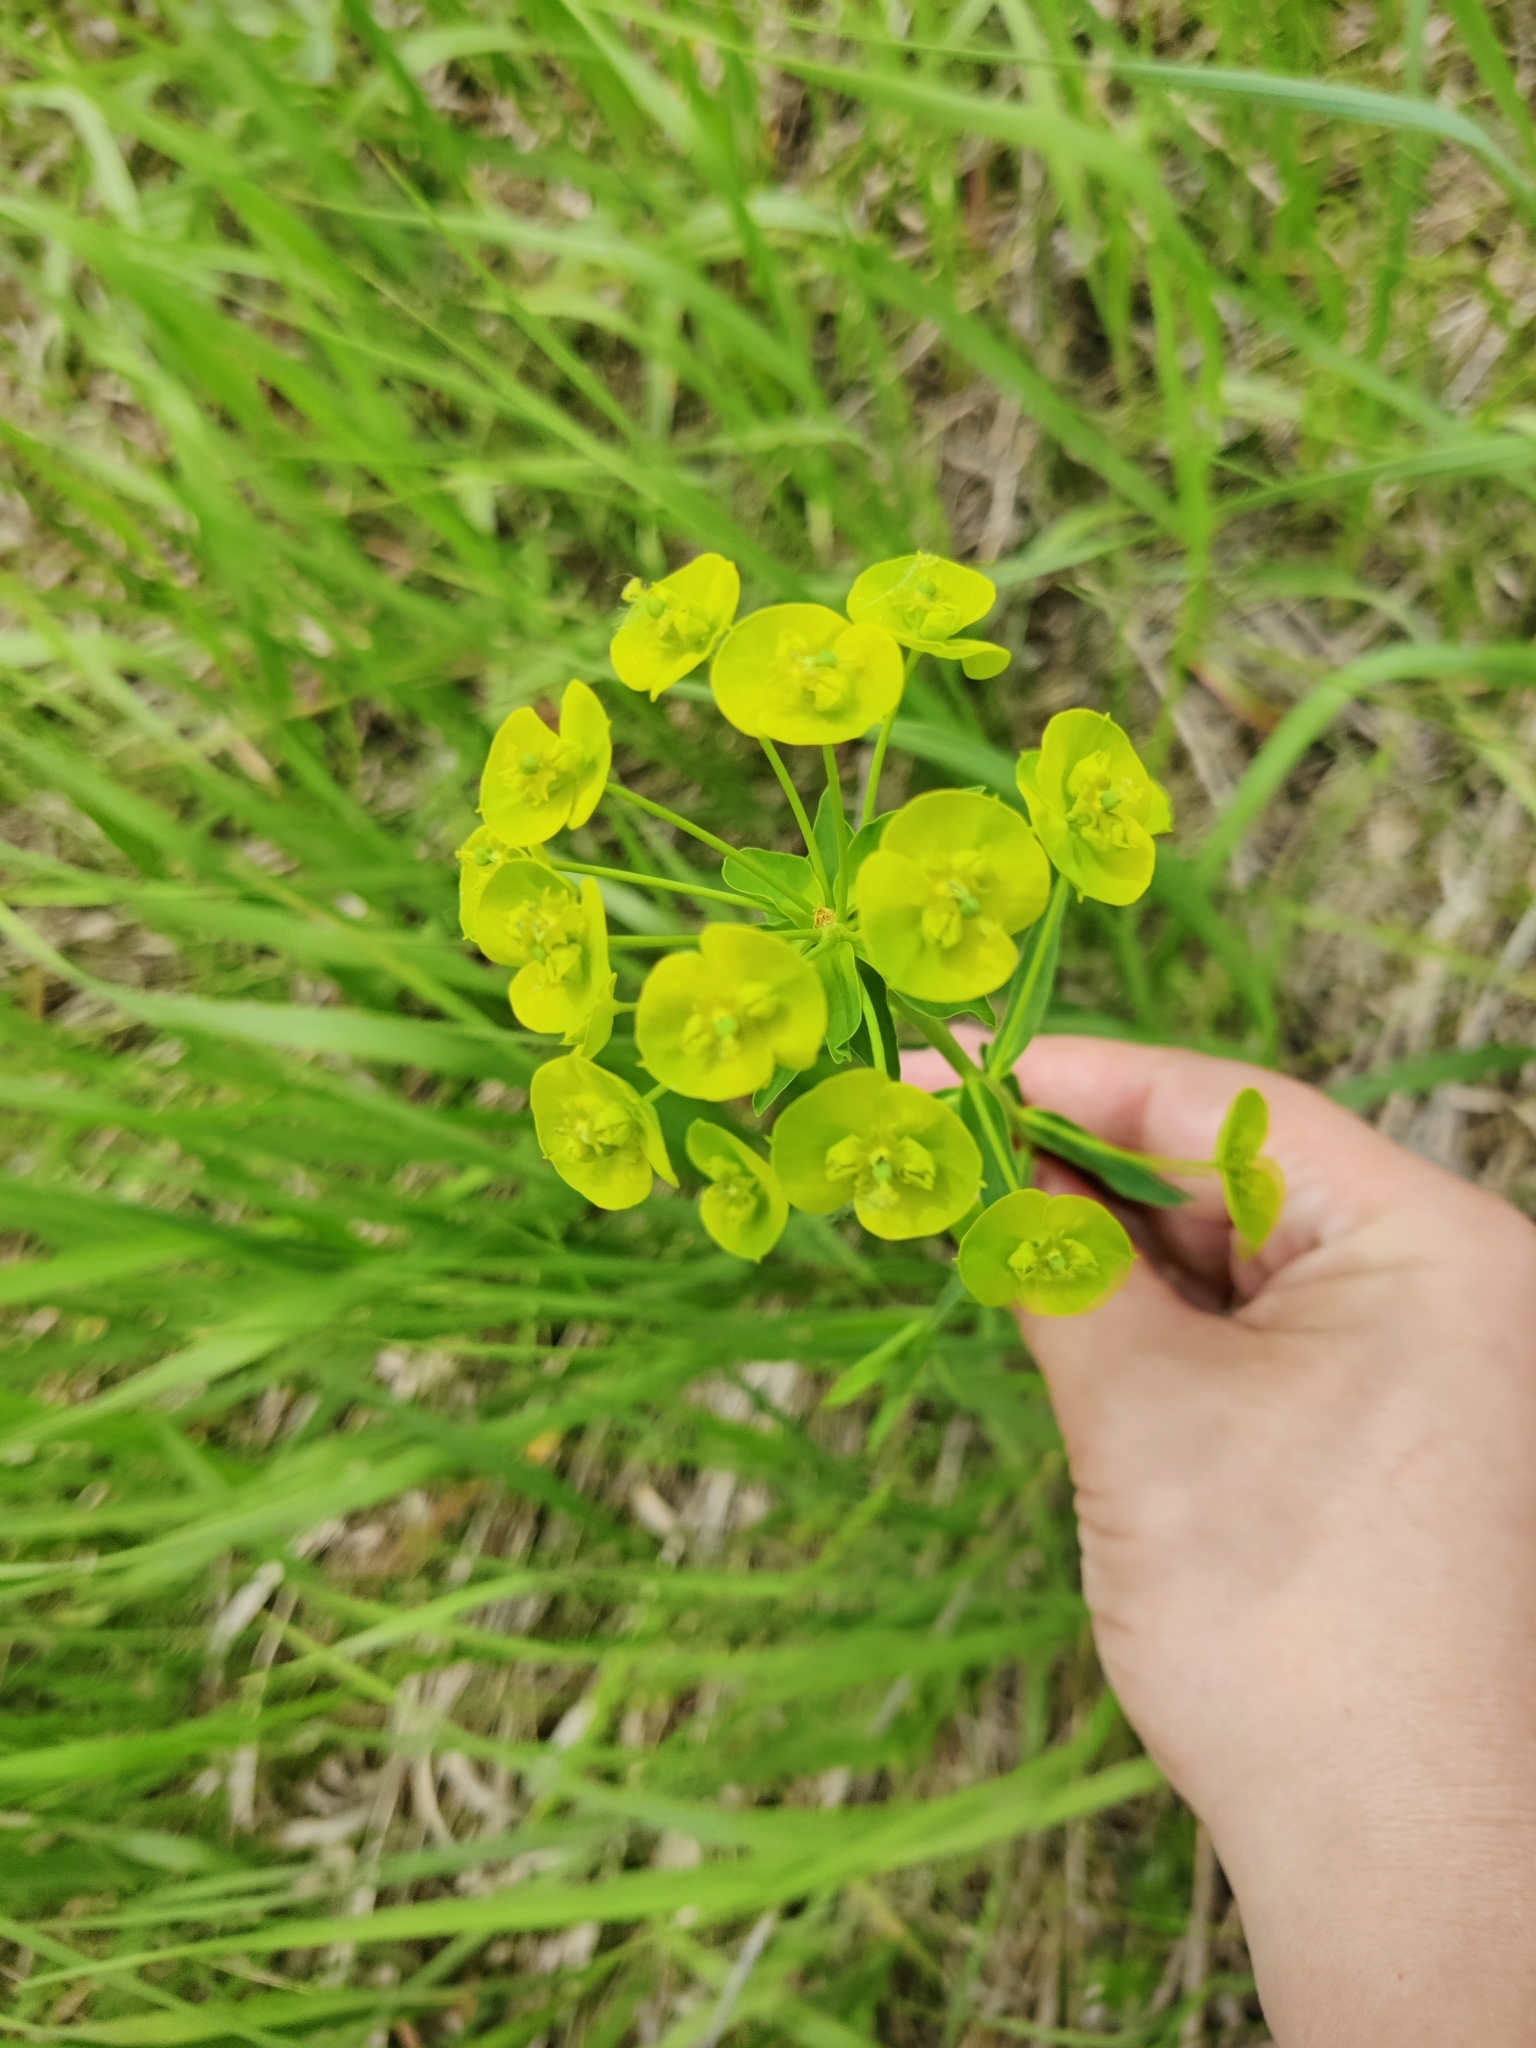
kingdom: Plantae
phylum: Tracheophyta
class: Magnoliopsida
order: Malpighiales
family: Euphorbiaceae
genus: Euphorbia
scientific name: Euphorbia virgata
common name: Leafy spurge
